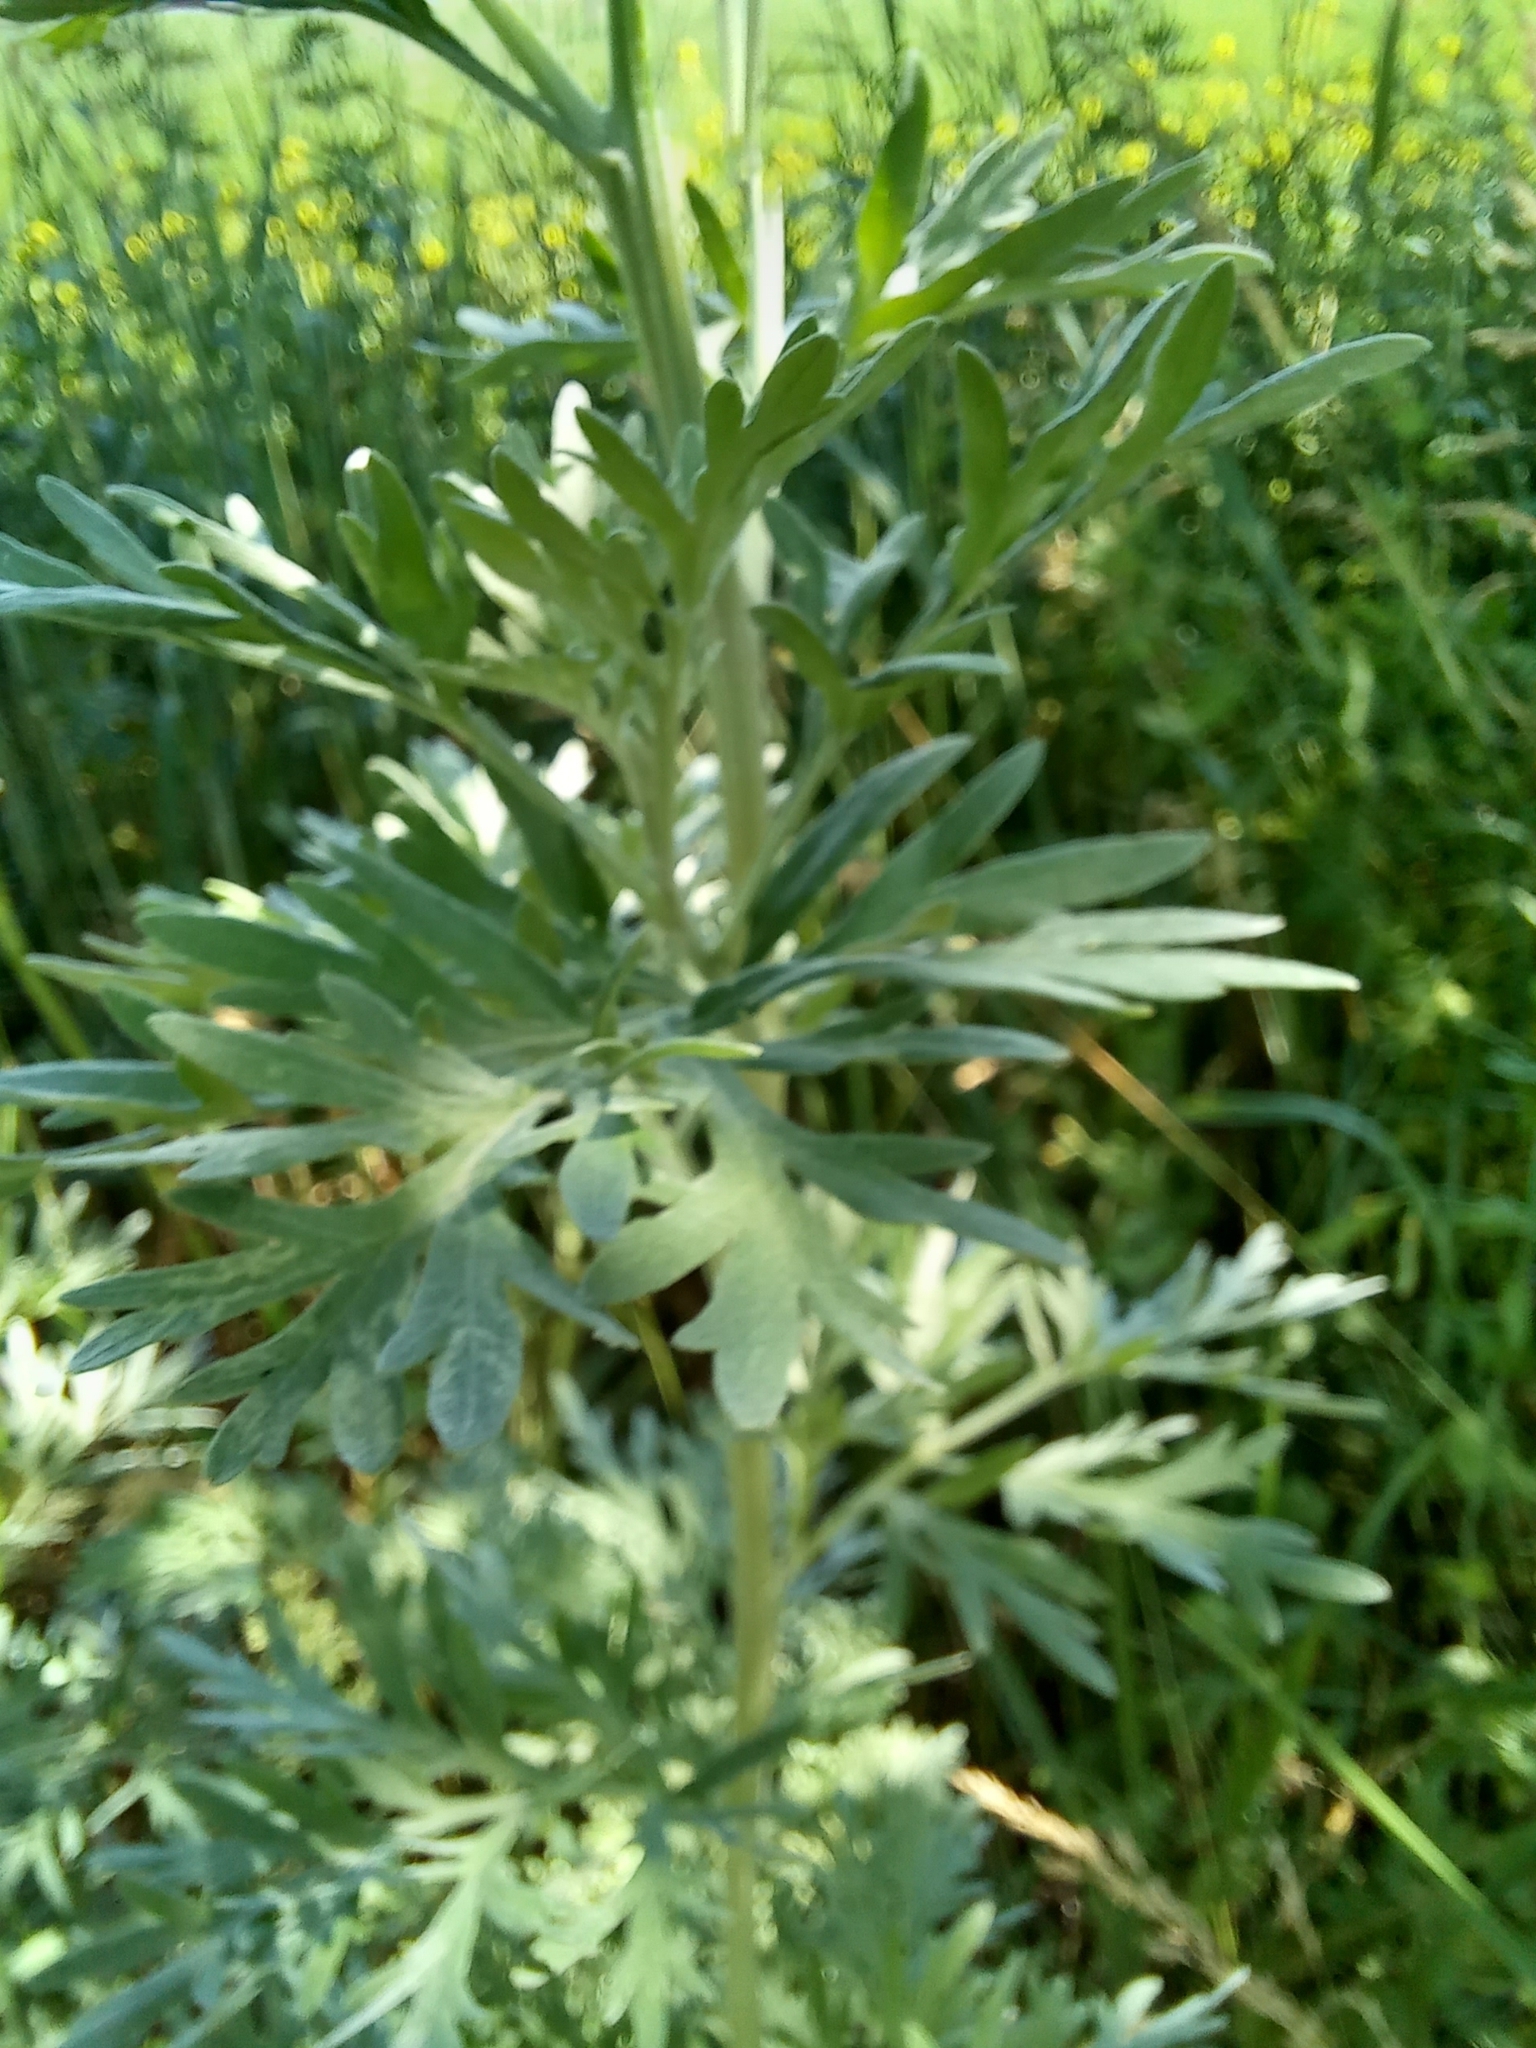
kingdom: Plantae
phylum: Tracheophyta
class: Magnoliopsida
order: Asterales
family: Asteraceae
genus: Artemisia
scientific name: Artemisia absinthium
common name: Wormwood
